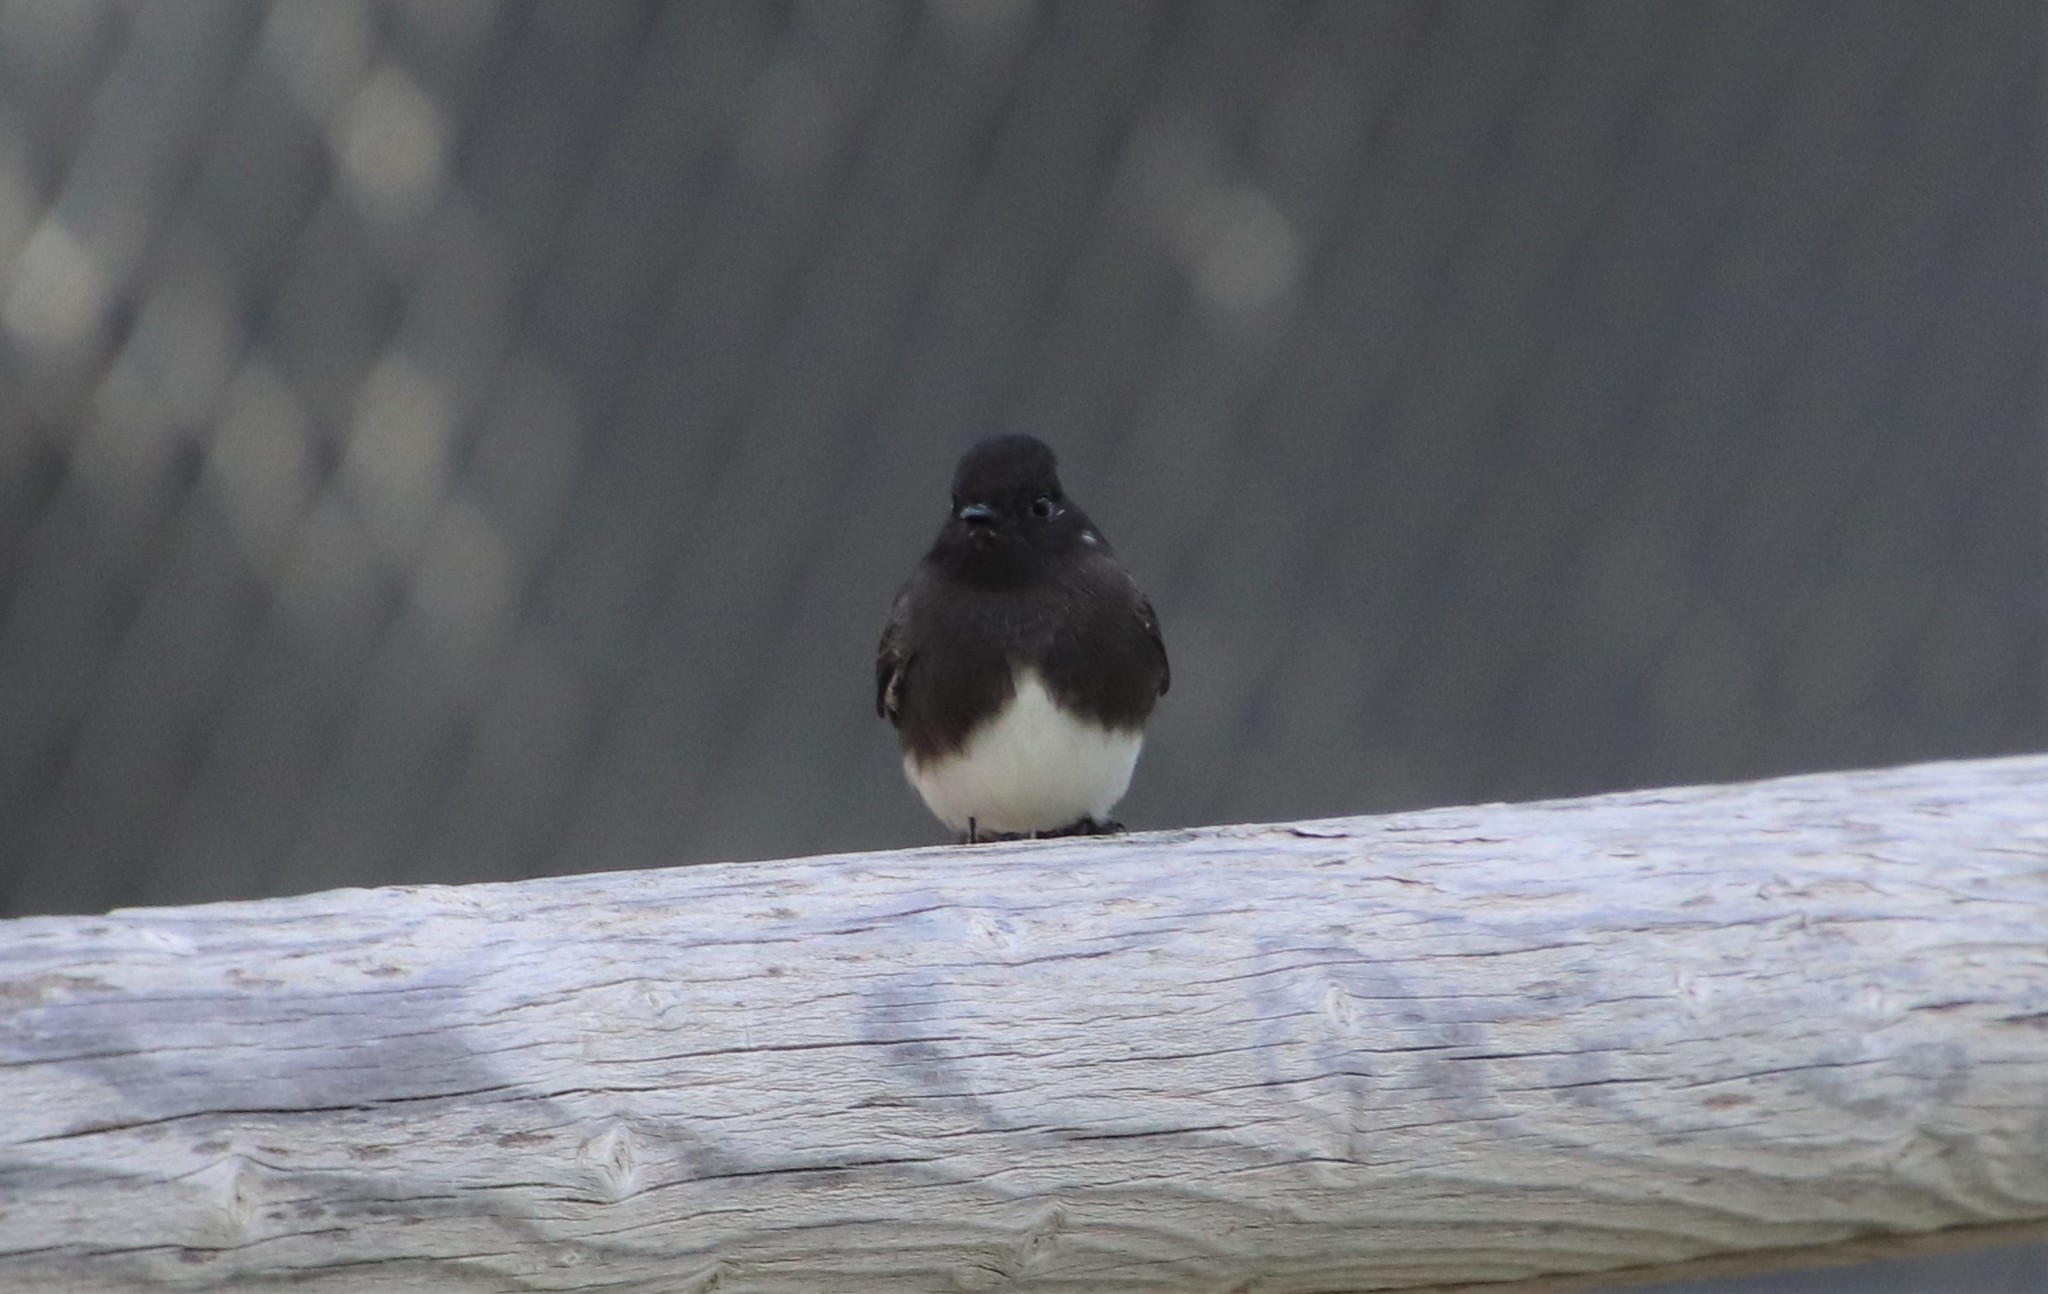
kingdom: Animalia
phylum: Chordata
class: Aves
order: Passeriformes
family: Tyrannidae
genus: Sayornis
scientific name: Sayornis nigricans
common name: Black phoebe
